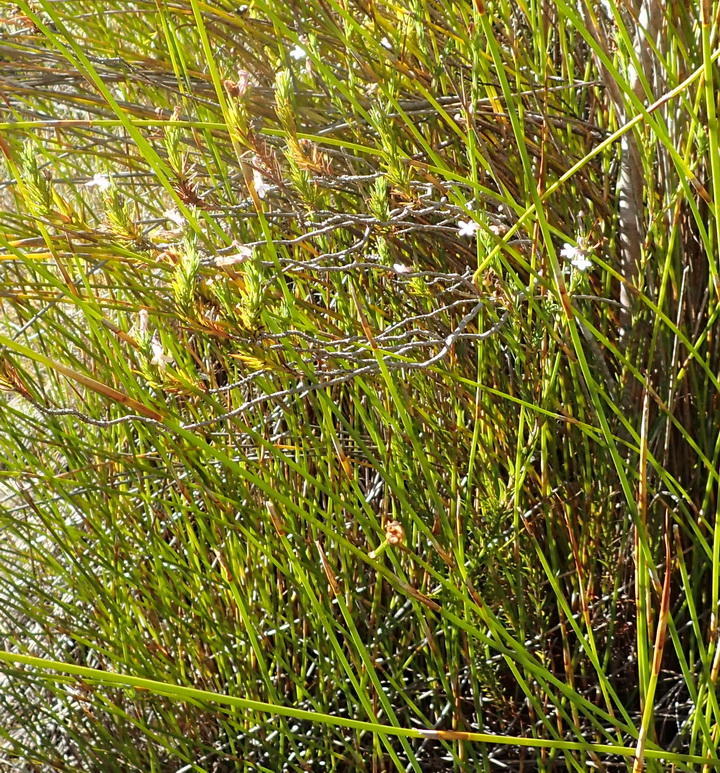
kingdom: Plantae
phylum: Tracheophyta
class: Magnoliopsida
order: Asterales
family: Campanulaceae
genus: Lobelia
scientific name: Lobelia pinifolia
